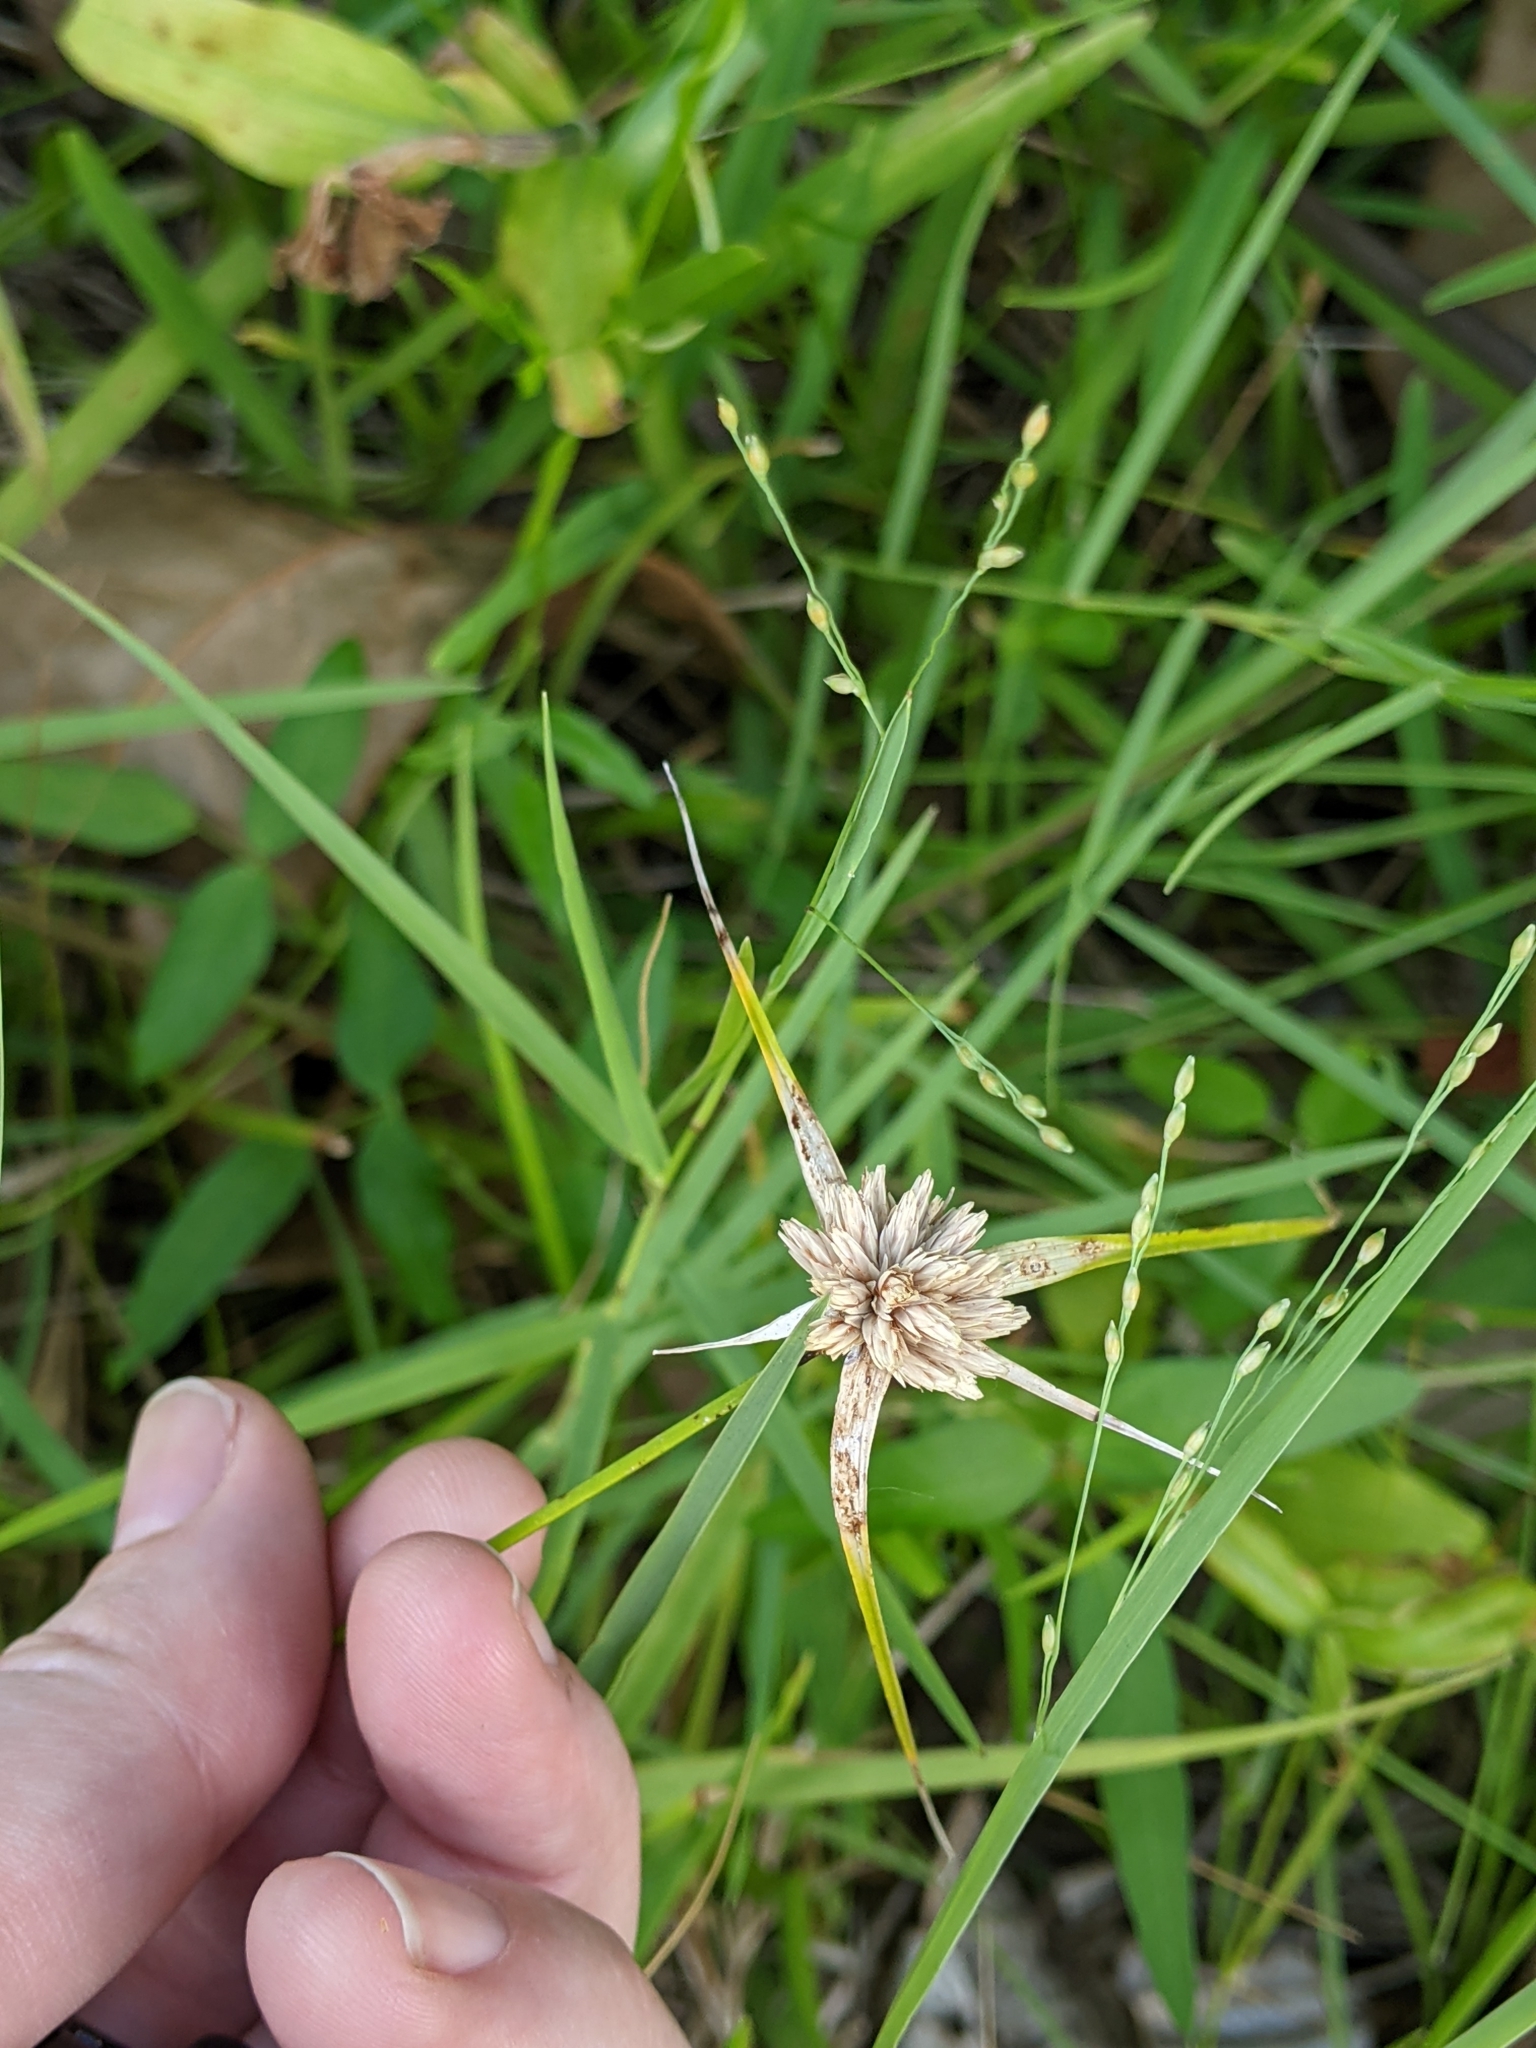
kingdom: Plantae
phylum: Tracheophyta
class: Liliopsida
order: Poales
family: Cyperaceae
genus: Rhynchospora
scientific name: Rhynchospora colorata
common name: Star sedge
